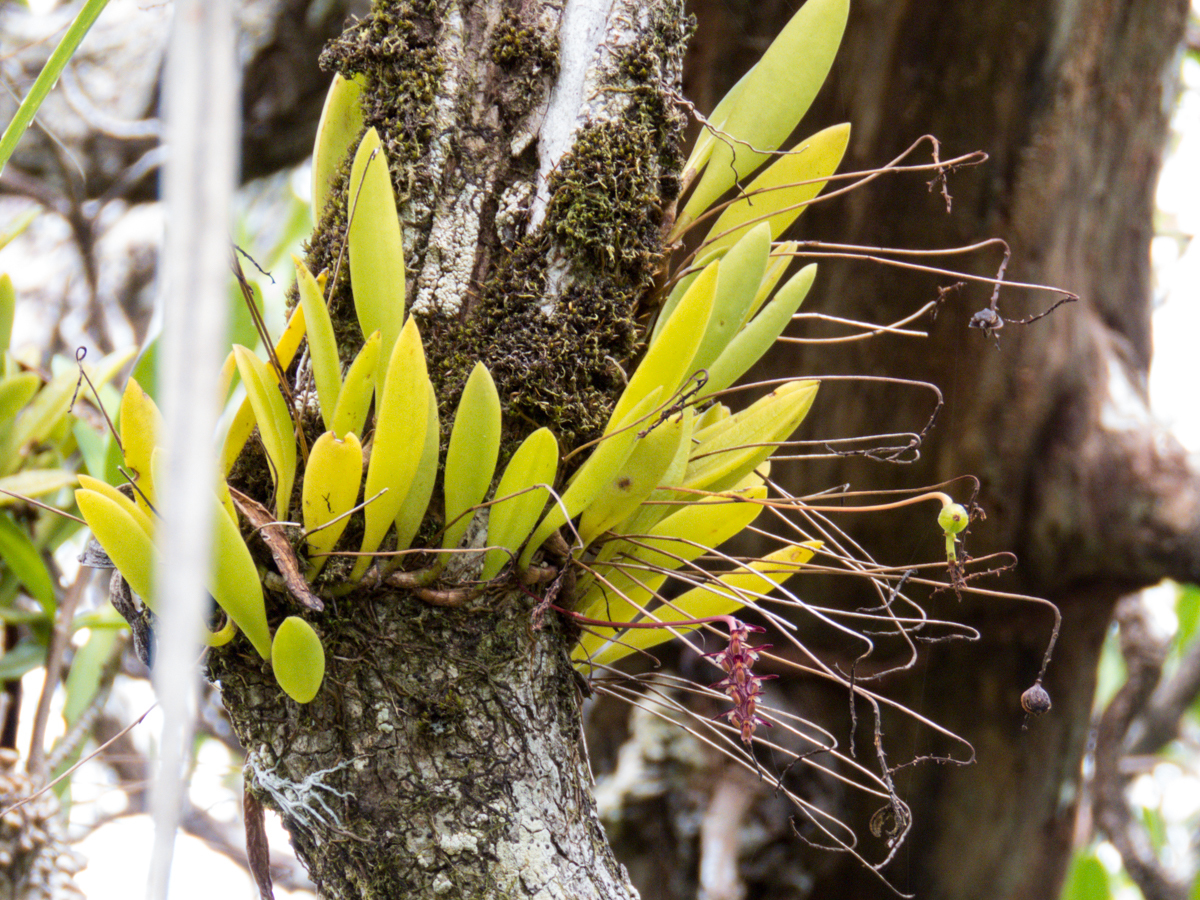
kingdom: Plantae
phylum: Tracheophyta
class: Liliopsida
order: Asparagales
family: Orchidaceae
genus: Bulbophyllum
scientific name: Bulbophyllum alcicorne
